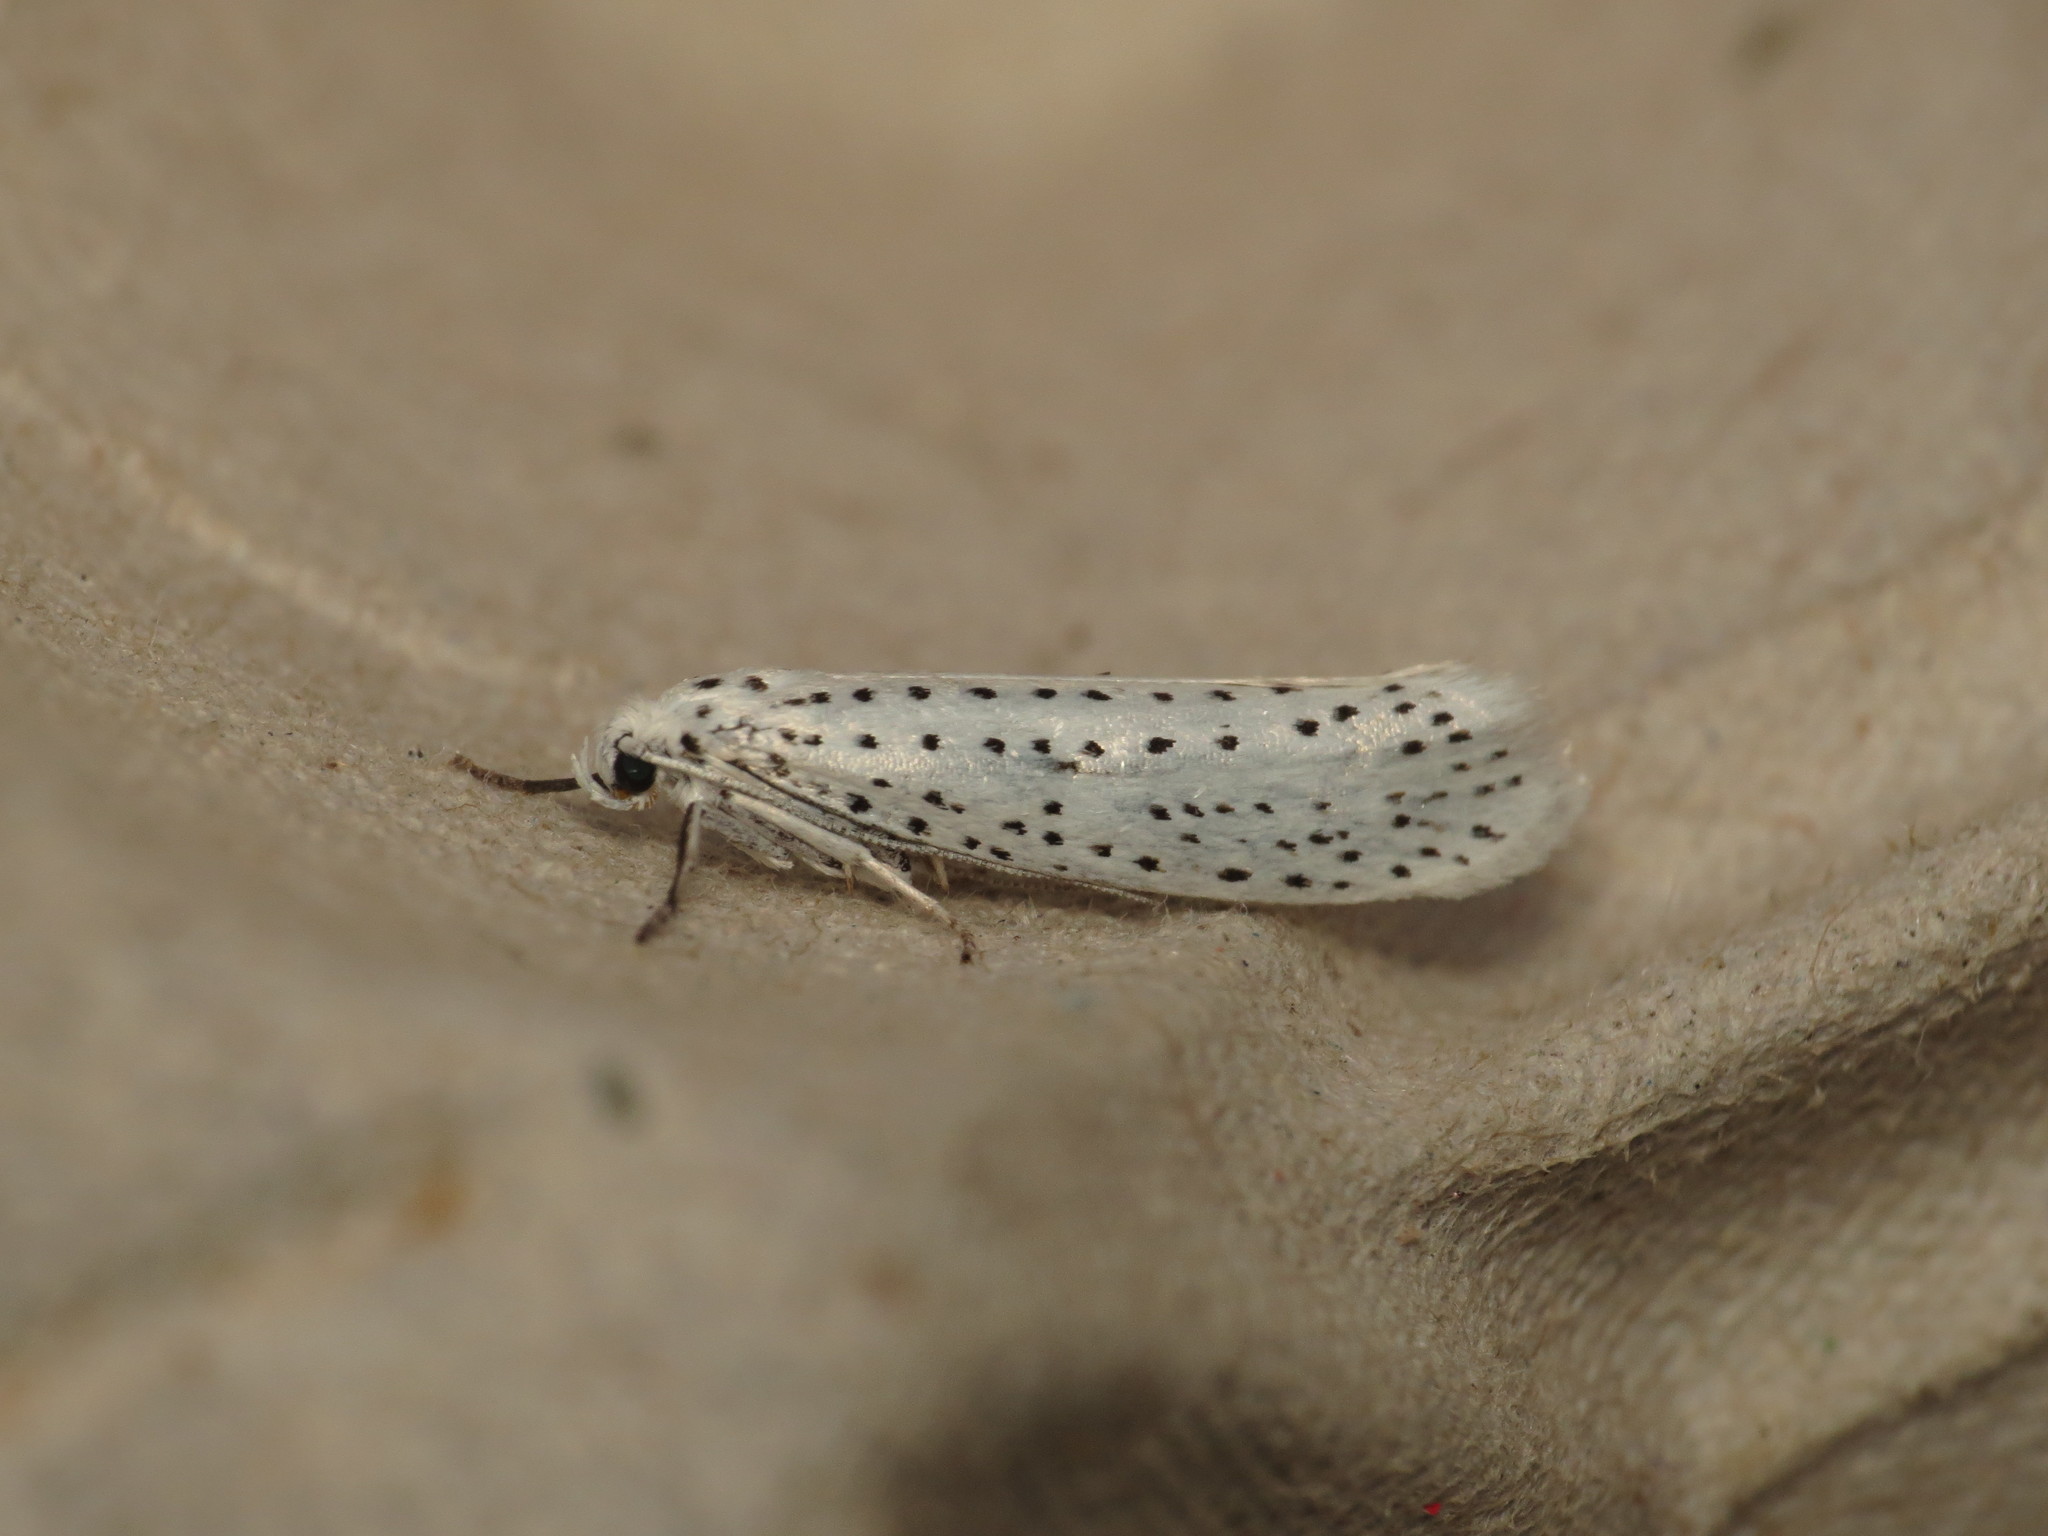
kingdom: Animalia
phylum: Arthropoda
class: Insecta
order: Lepidoptera
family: Yponomeutidae
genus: Yponomeuta
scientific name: Yponomeuta evonymella
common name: Bird-cherry ermine
